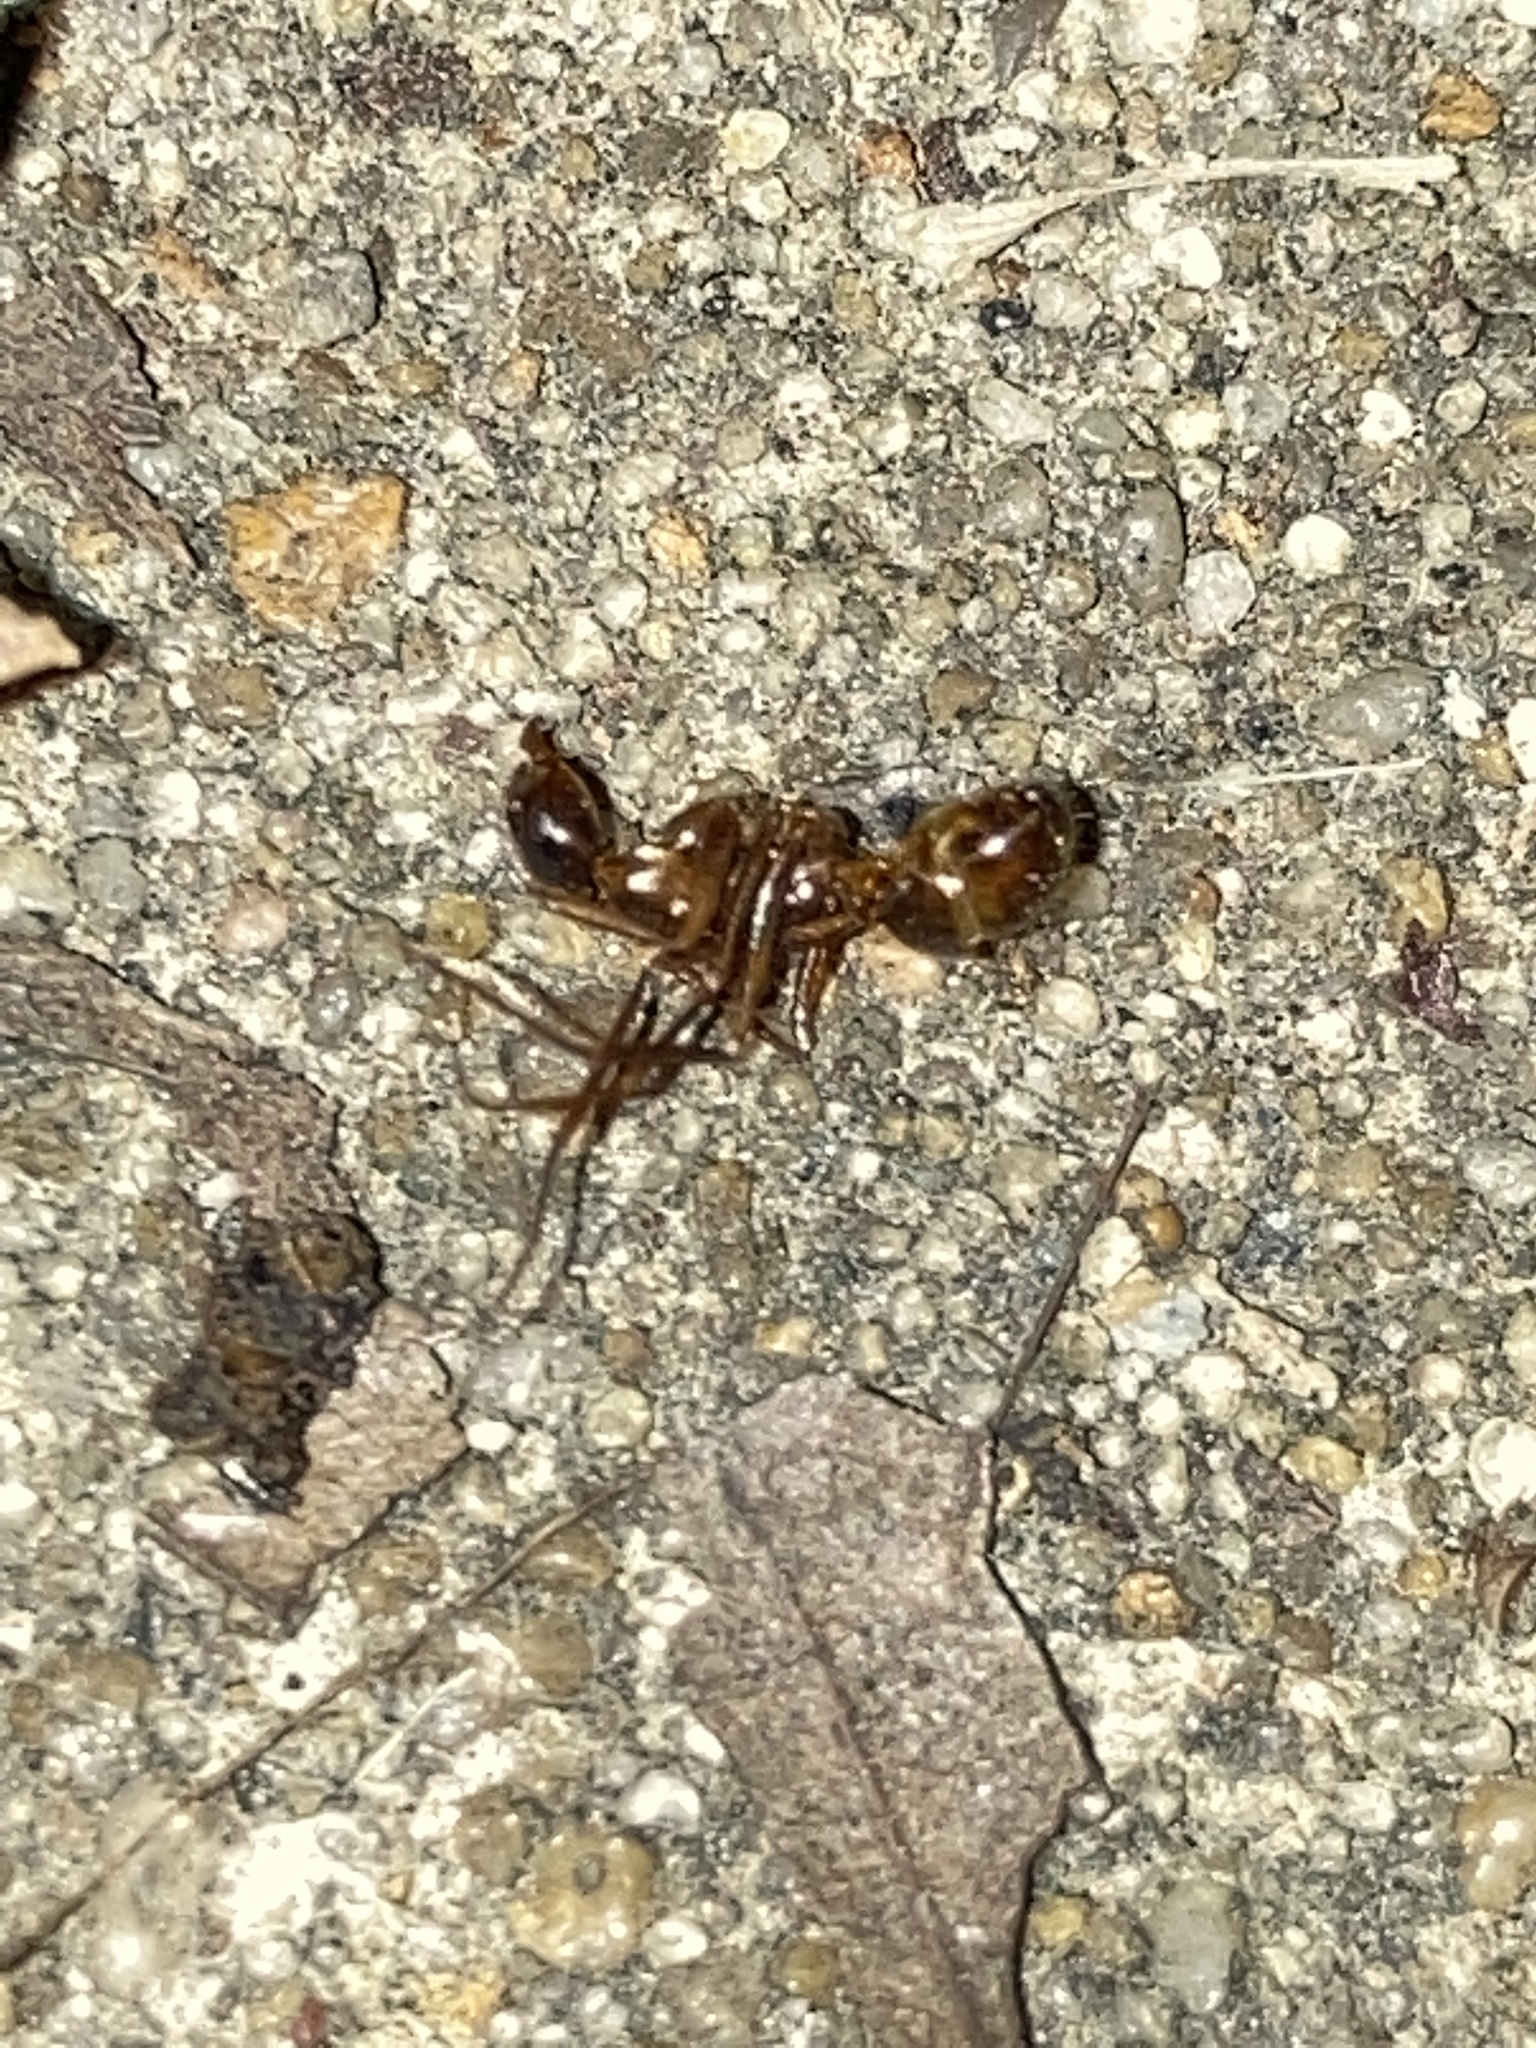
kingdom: Animalia
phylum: Arthropoda
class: Insecta
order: Hymenoptera
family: Formicidae
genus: Camponotus
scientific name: Camponotus americanus
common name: American carpenter ant
